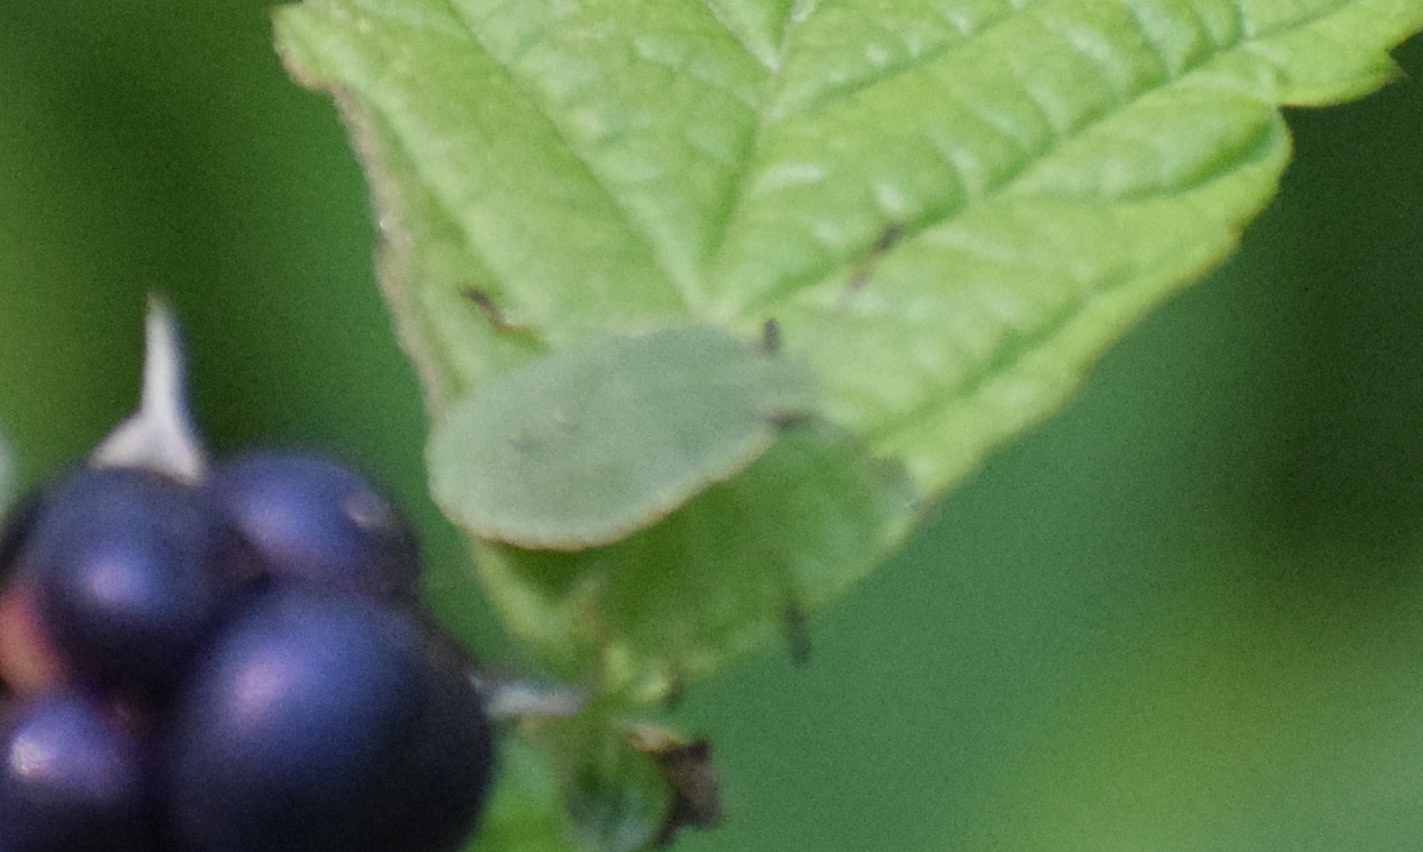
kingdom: Animalia
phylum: Arthropoda
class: Insecta
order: Hemiptera
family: Pentatomidae
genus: Palomena
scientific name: Palomena prasina
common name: Green shieldbug
